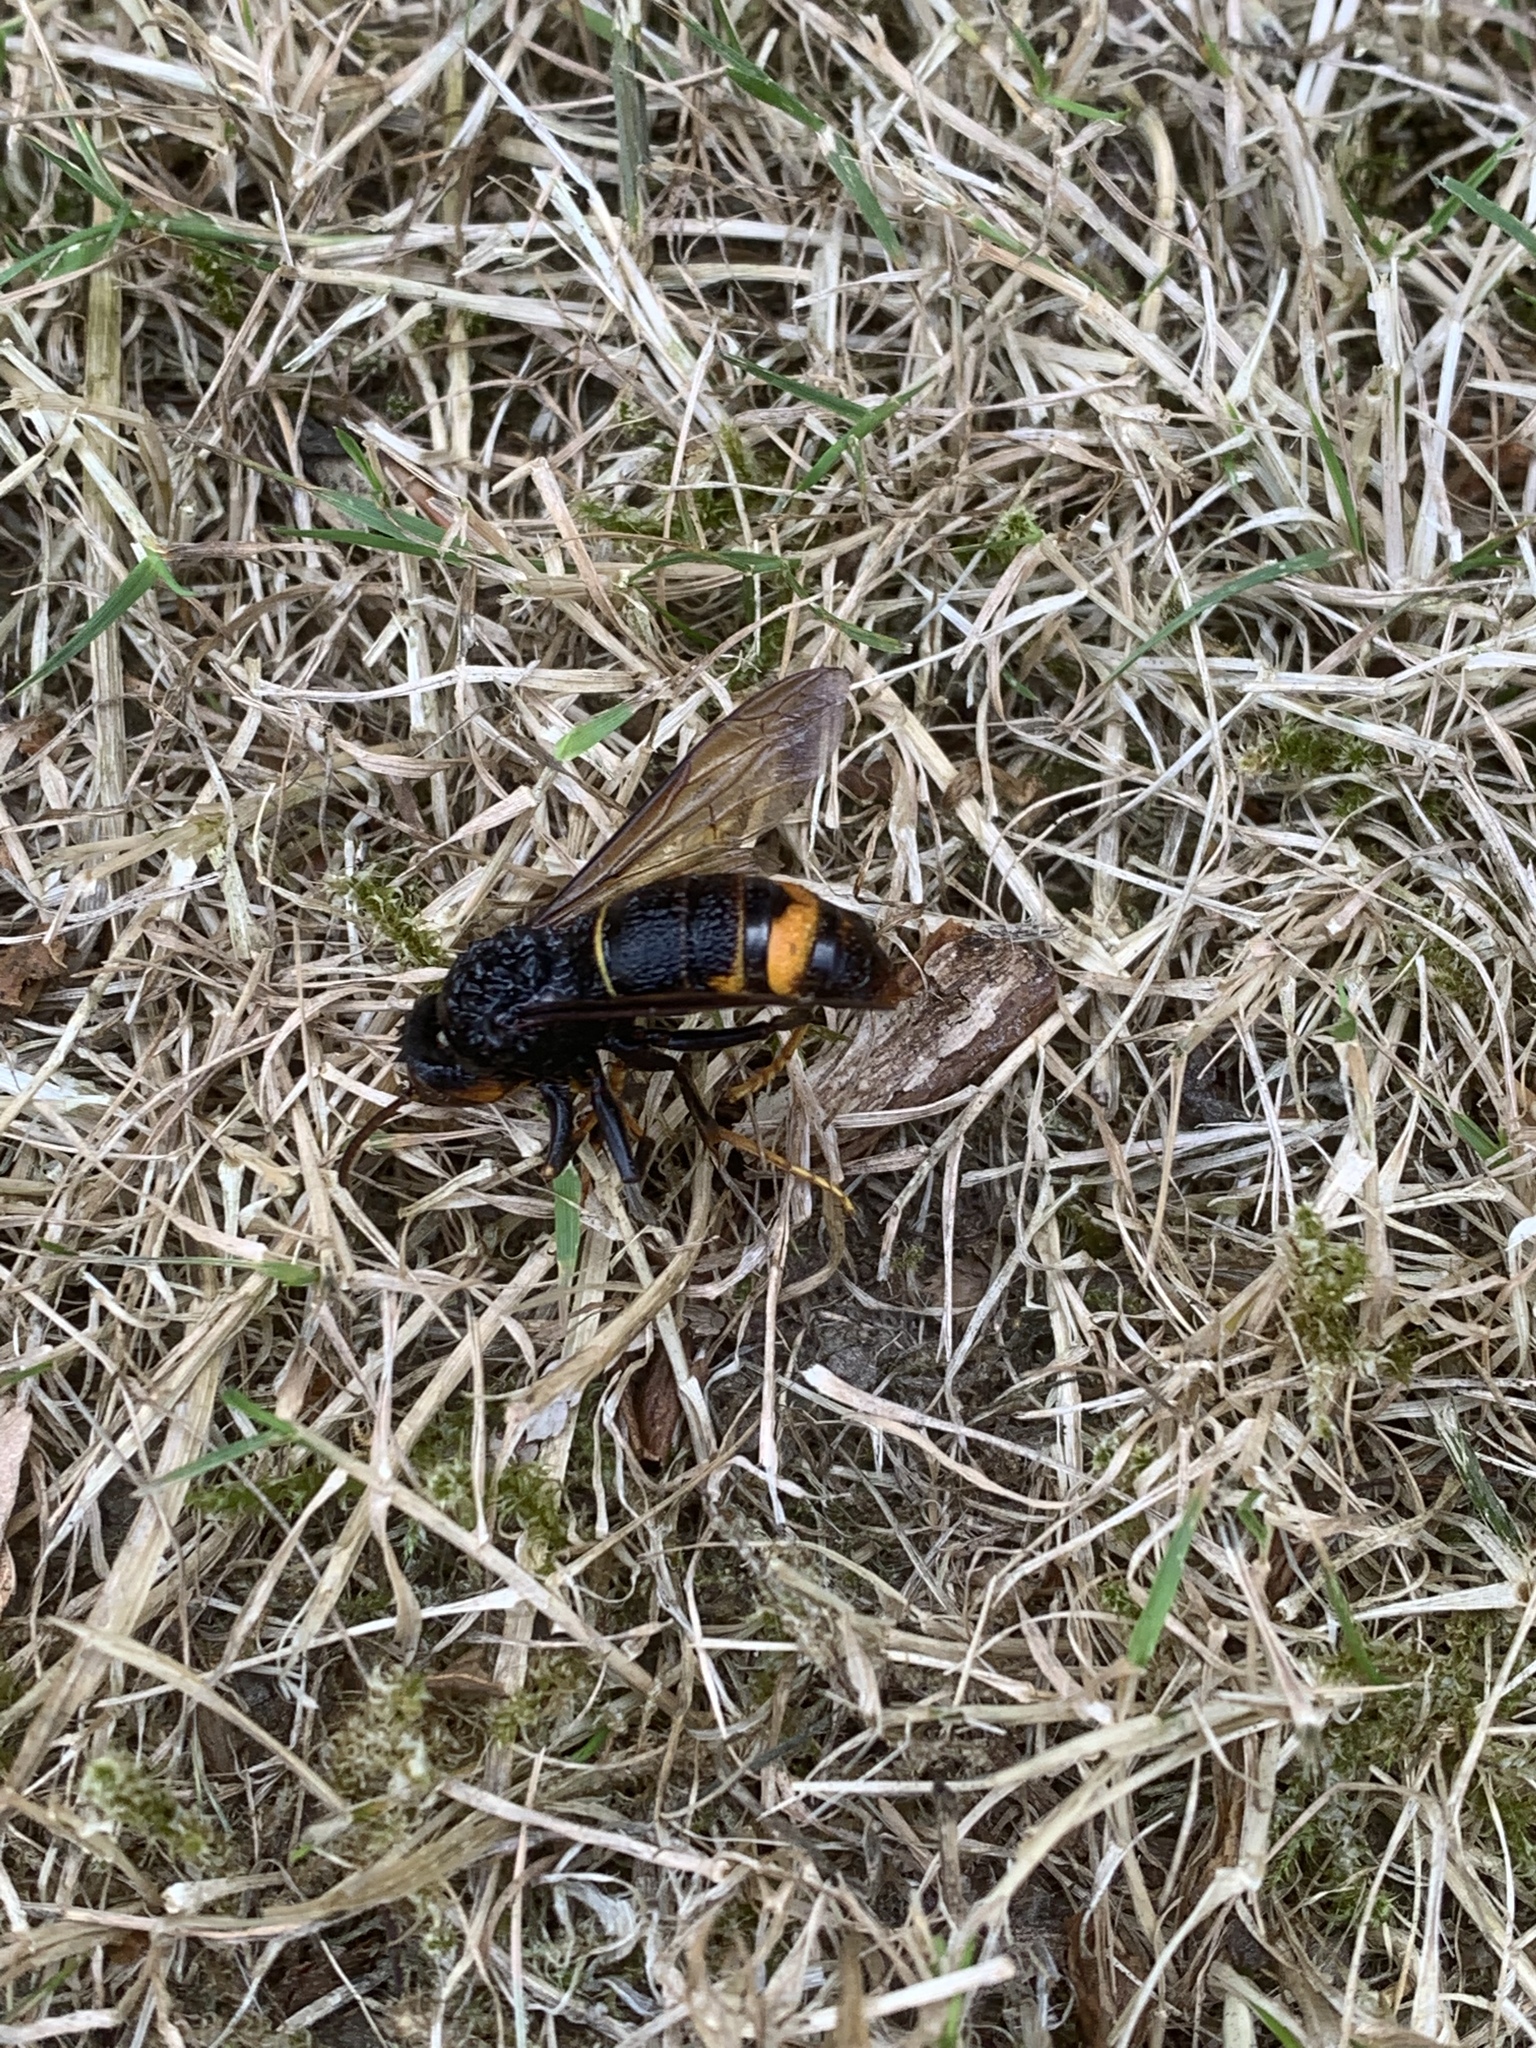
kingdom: Animalia
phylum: Arthropoda
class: Insecta
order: Hymenoptera
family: Vespidae
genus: Vespa
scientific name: Vespa velutina
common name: Asian hornet
